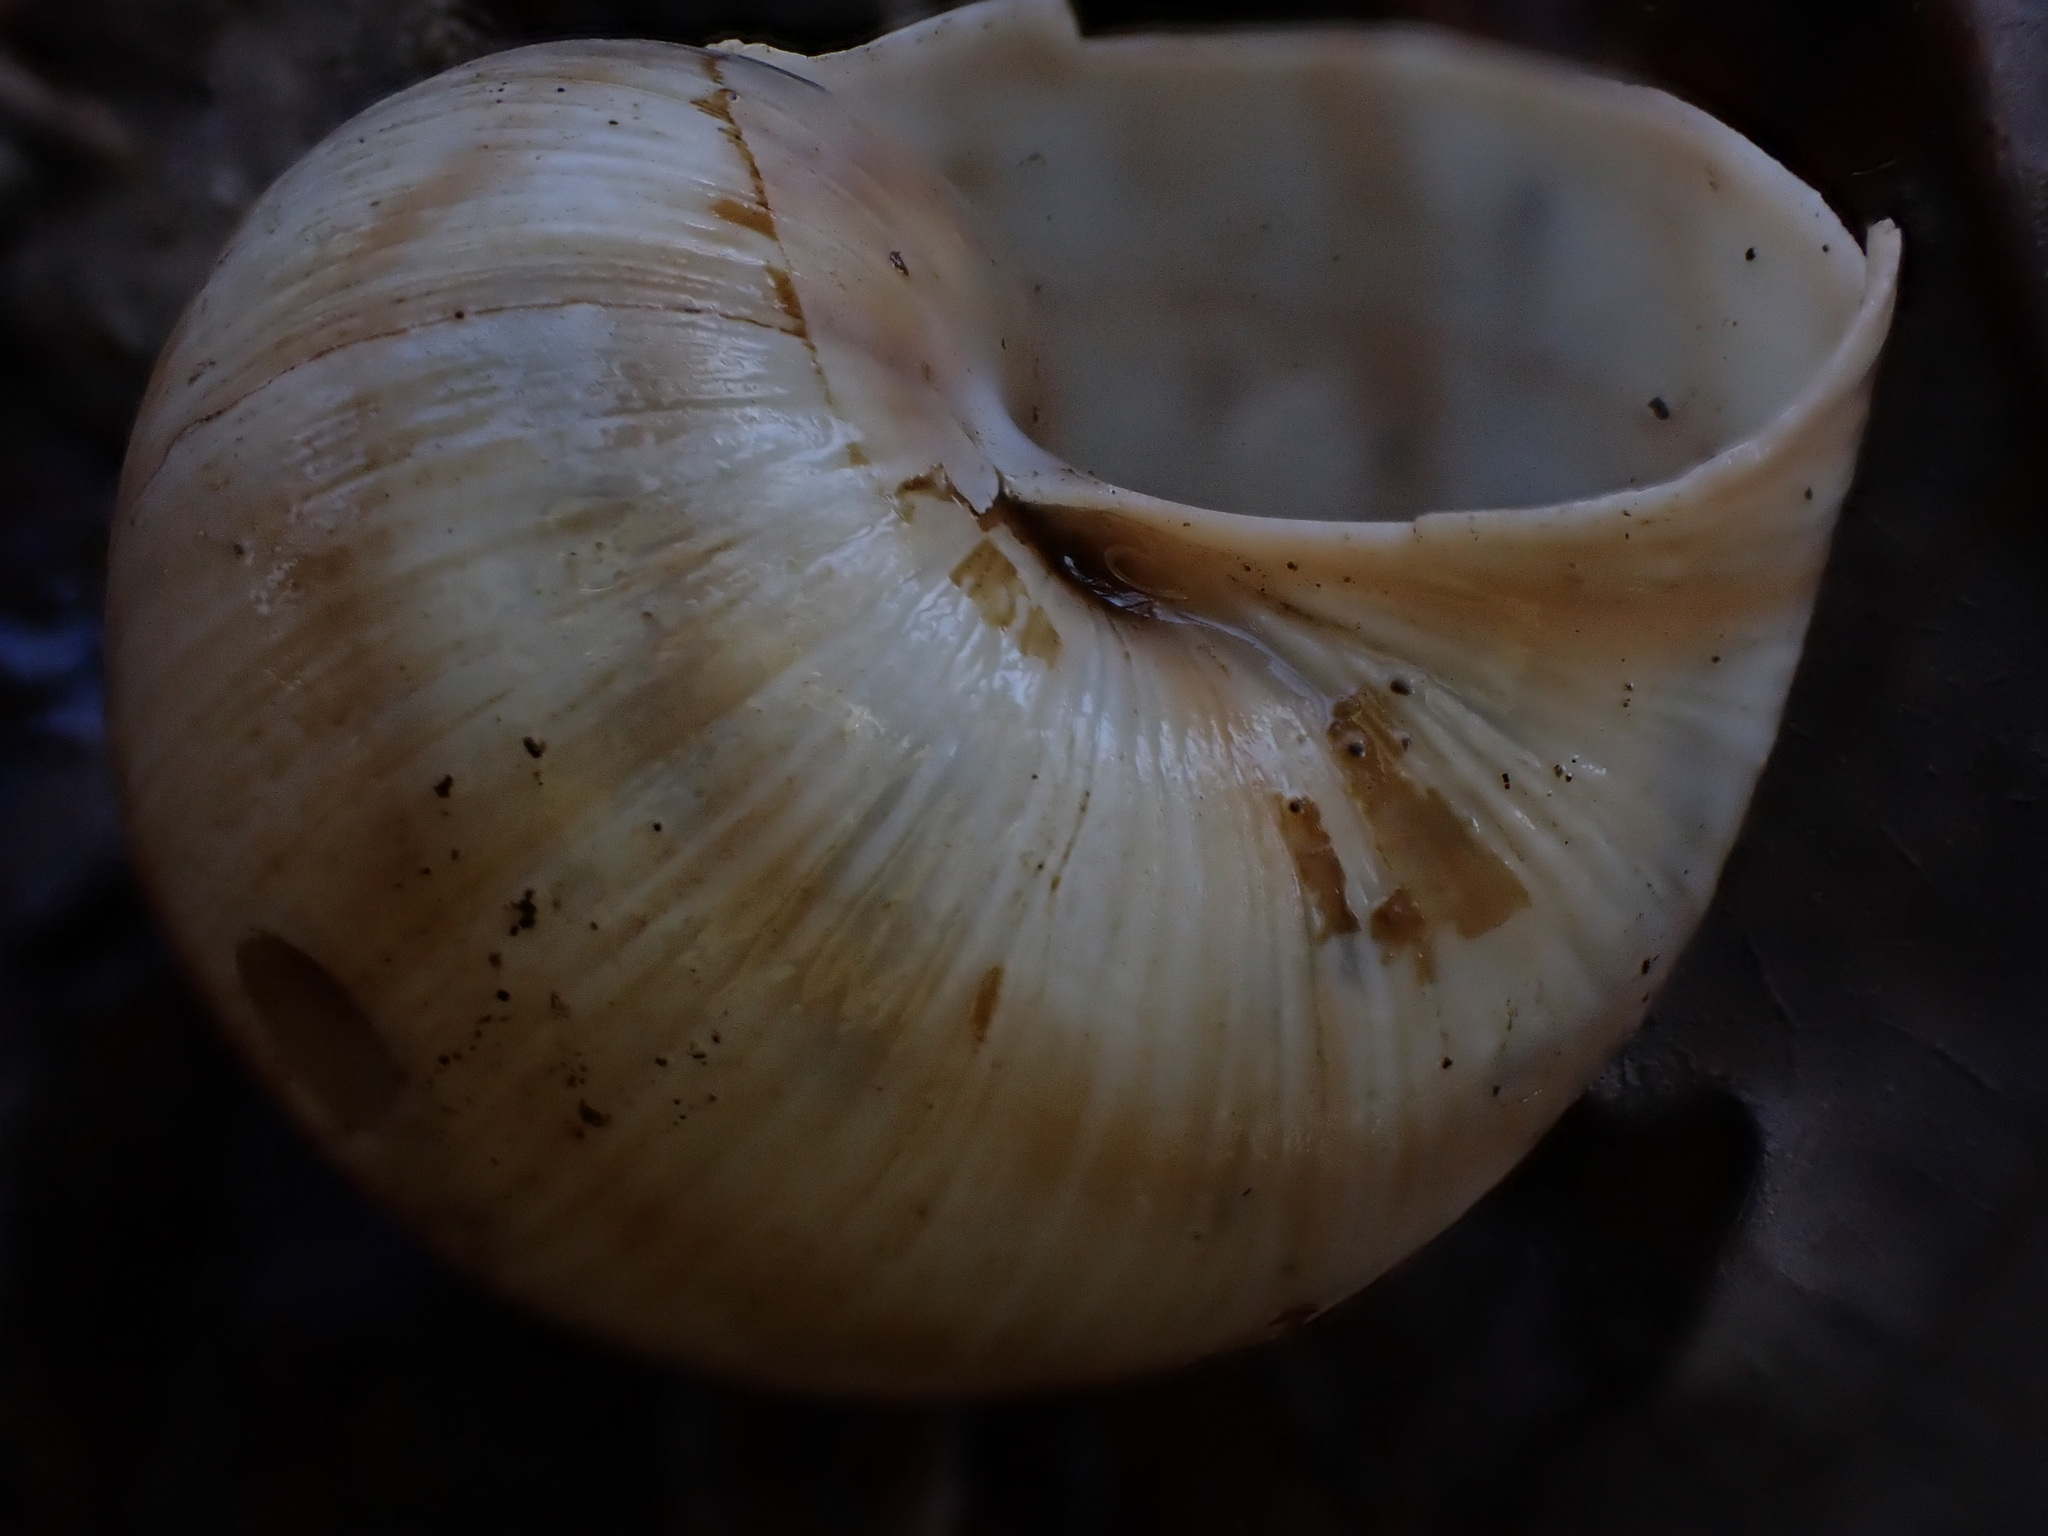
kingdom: Animalia
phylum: Mollusca
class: Gastropoda
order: Stylommatophora
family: Helicidae
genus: Helix
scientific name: Helix pomatia
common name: Roman snail
